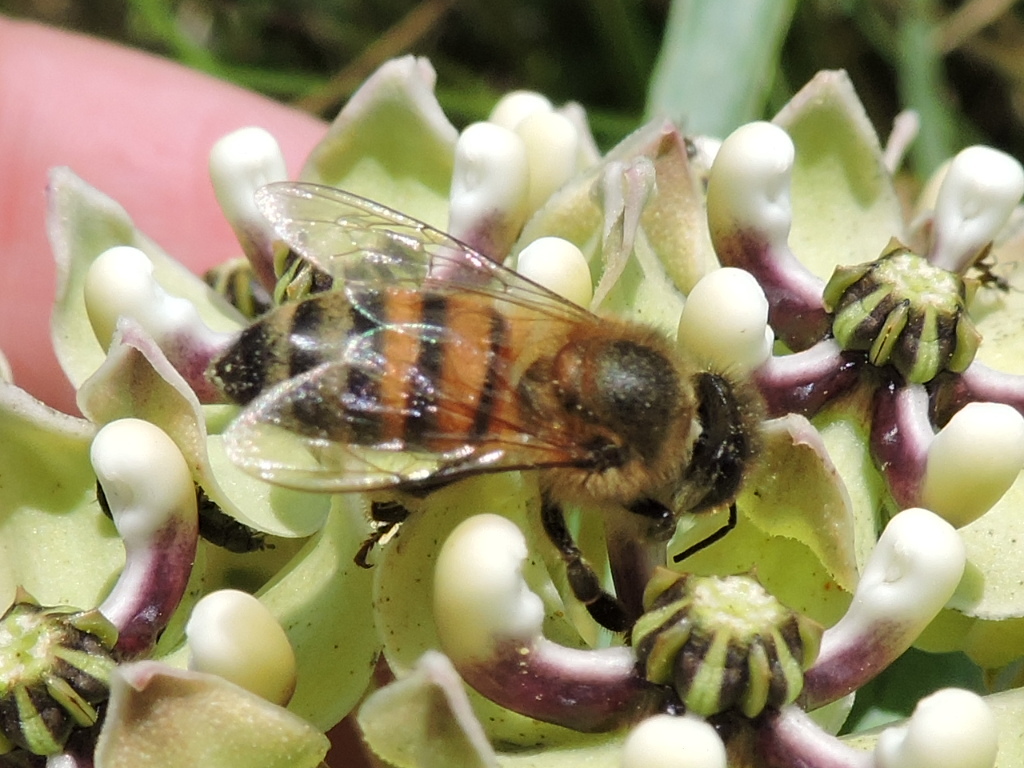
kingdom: Animalia
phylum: Arthropoda
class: Insecta
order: Hymenoptera
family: Apidae
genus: Apis
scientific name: Apis mellifera
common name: Honey bee
